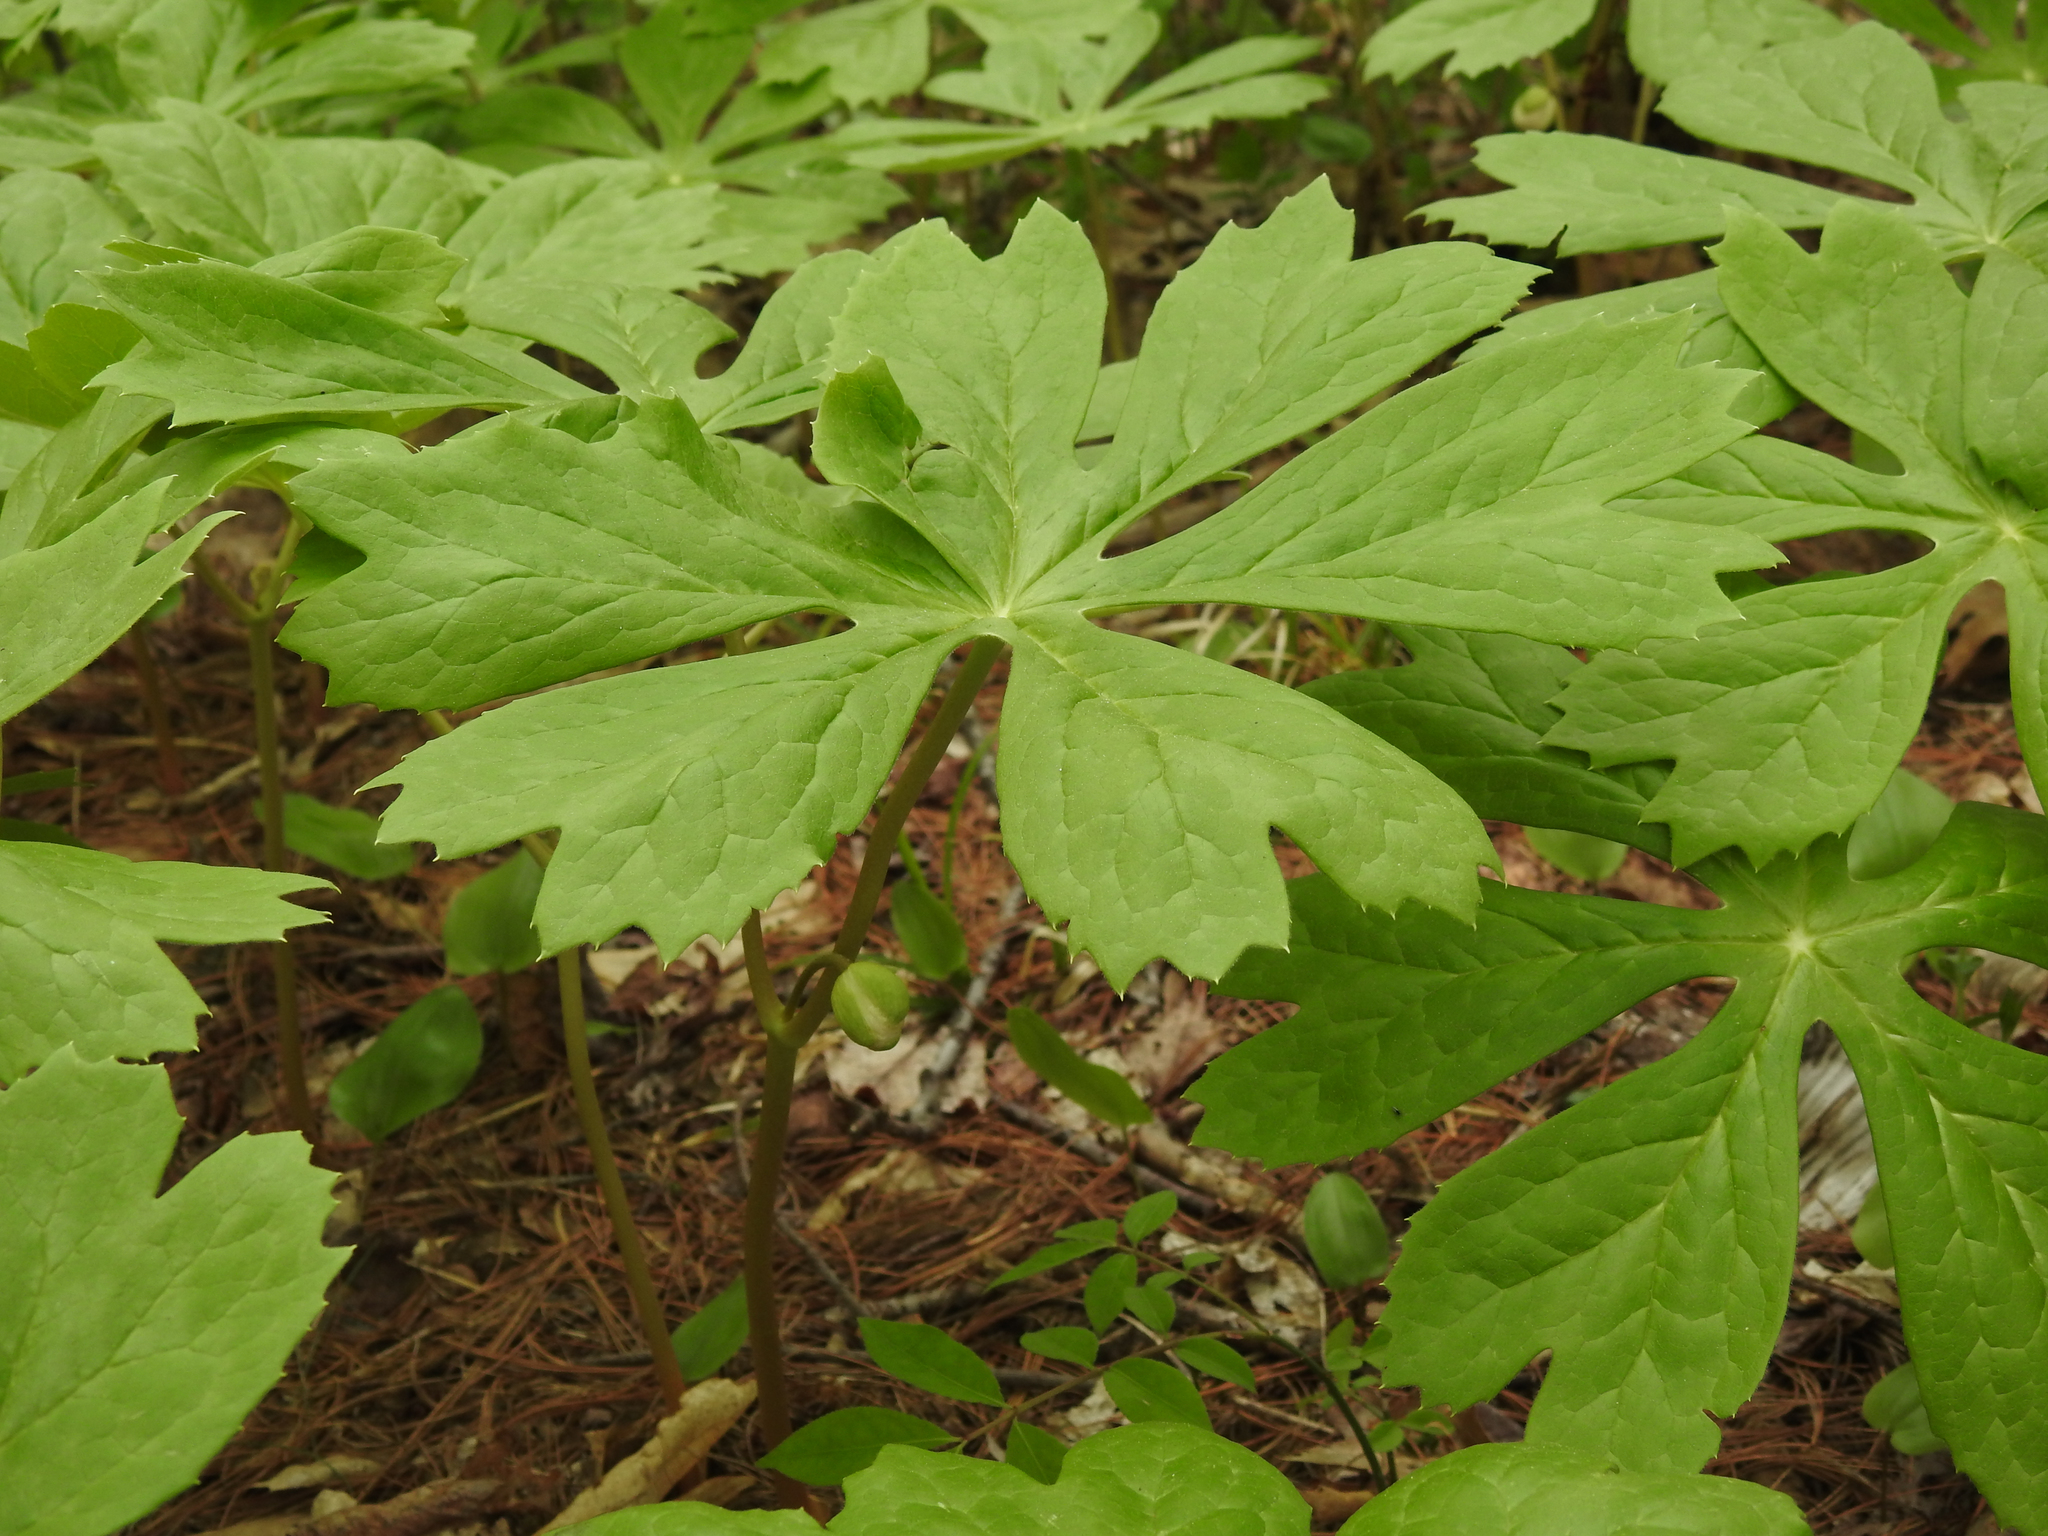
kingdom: Plantae
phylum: Tracheophyta
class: Magnoliopsida
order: Ranunculales
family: Berberidaceae
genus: Podophyllum
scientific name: Podophyllum peltatum
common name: Wild mandrake
